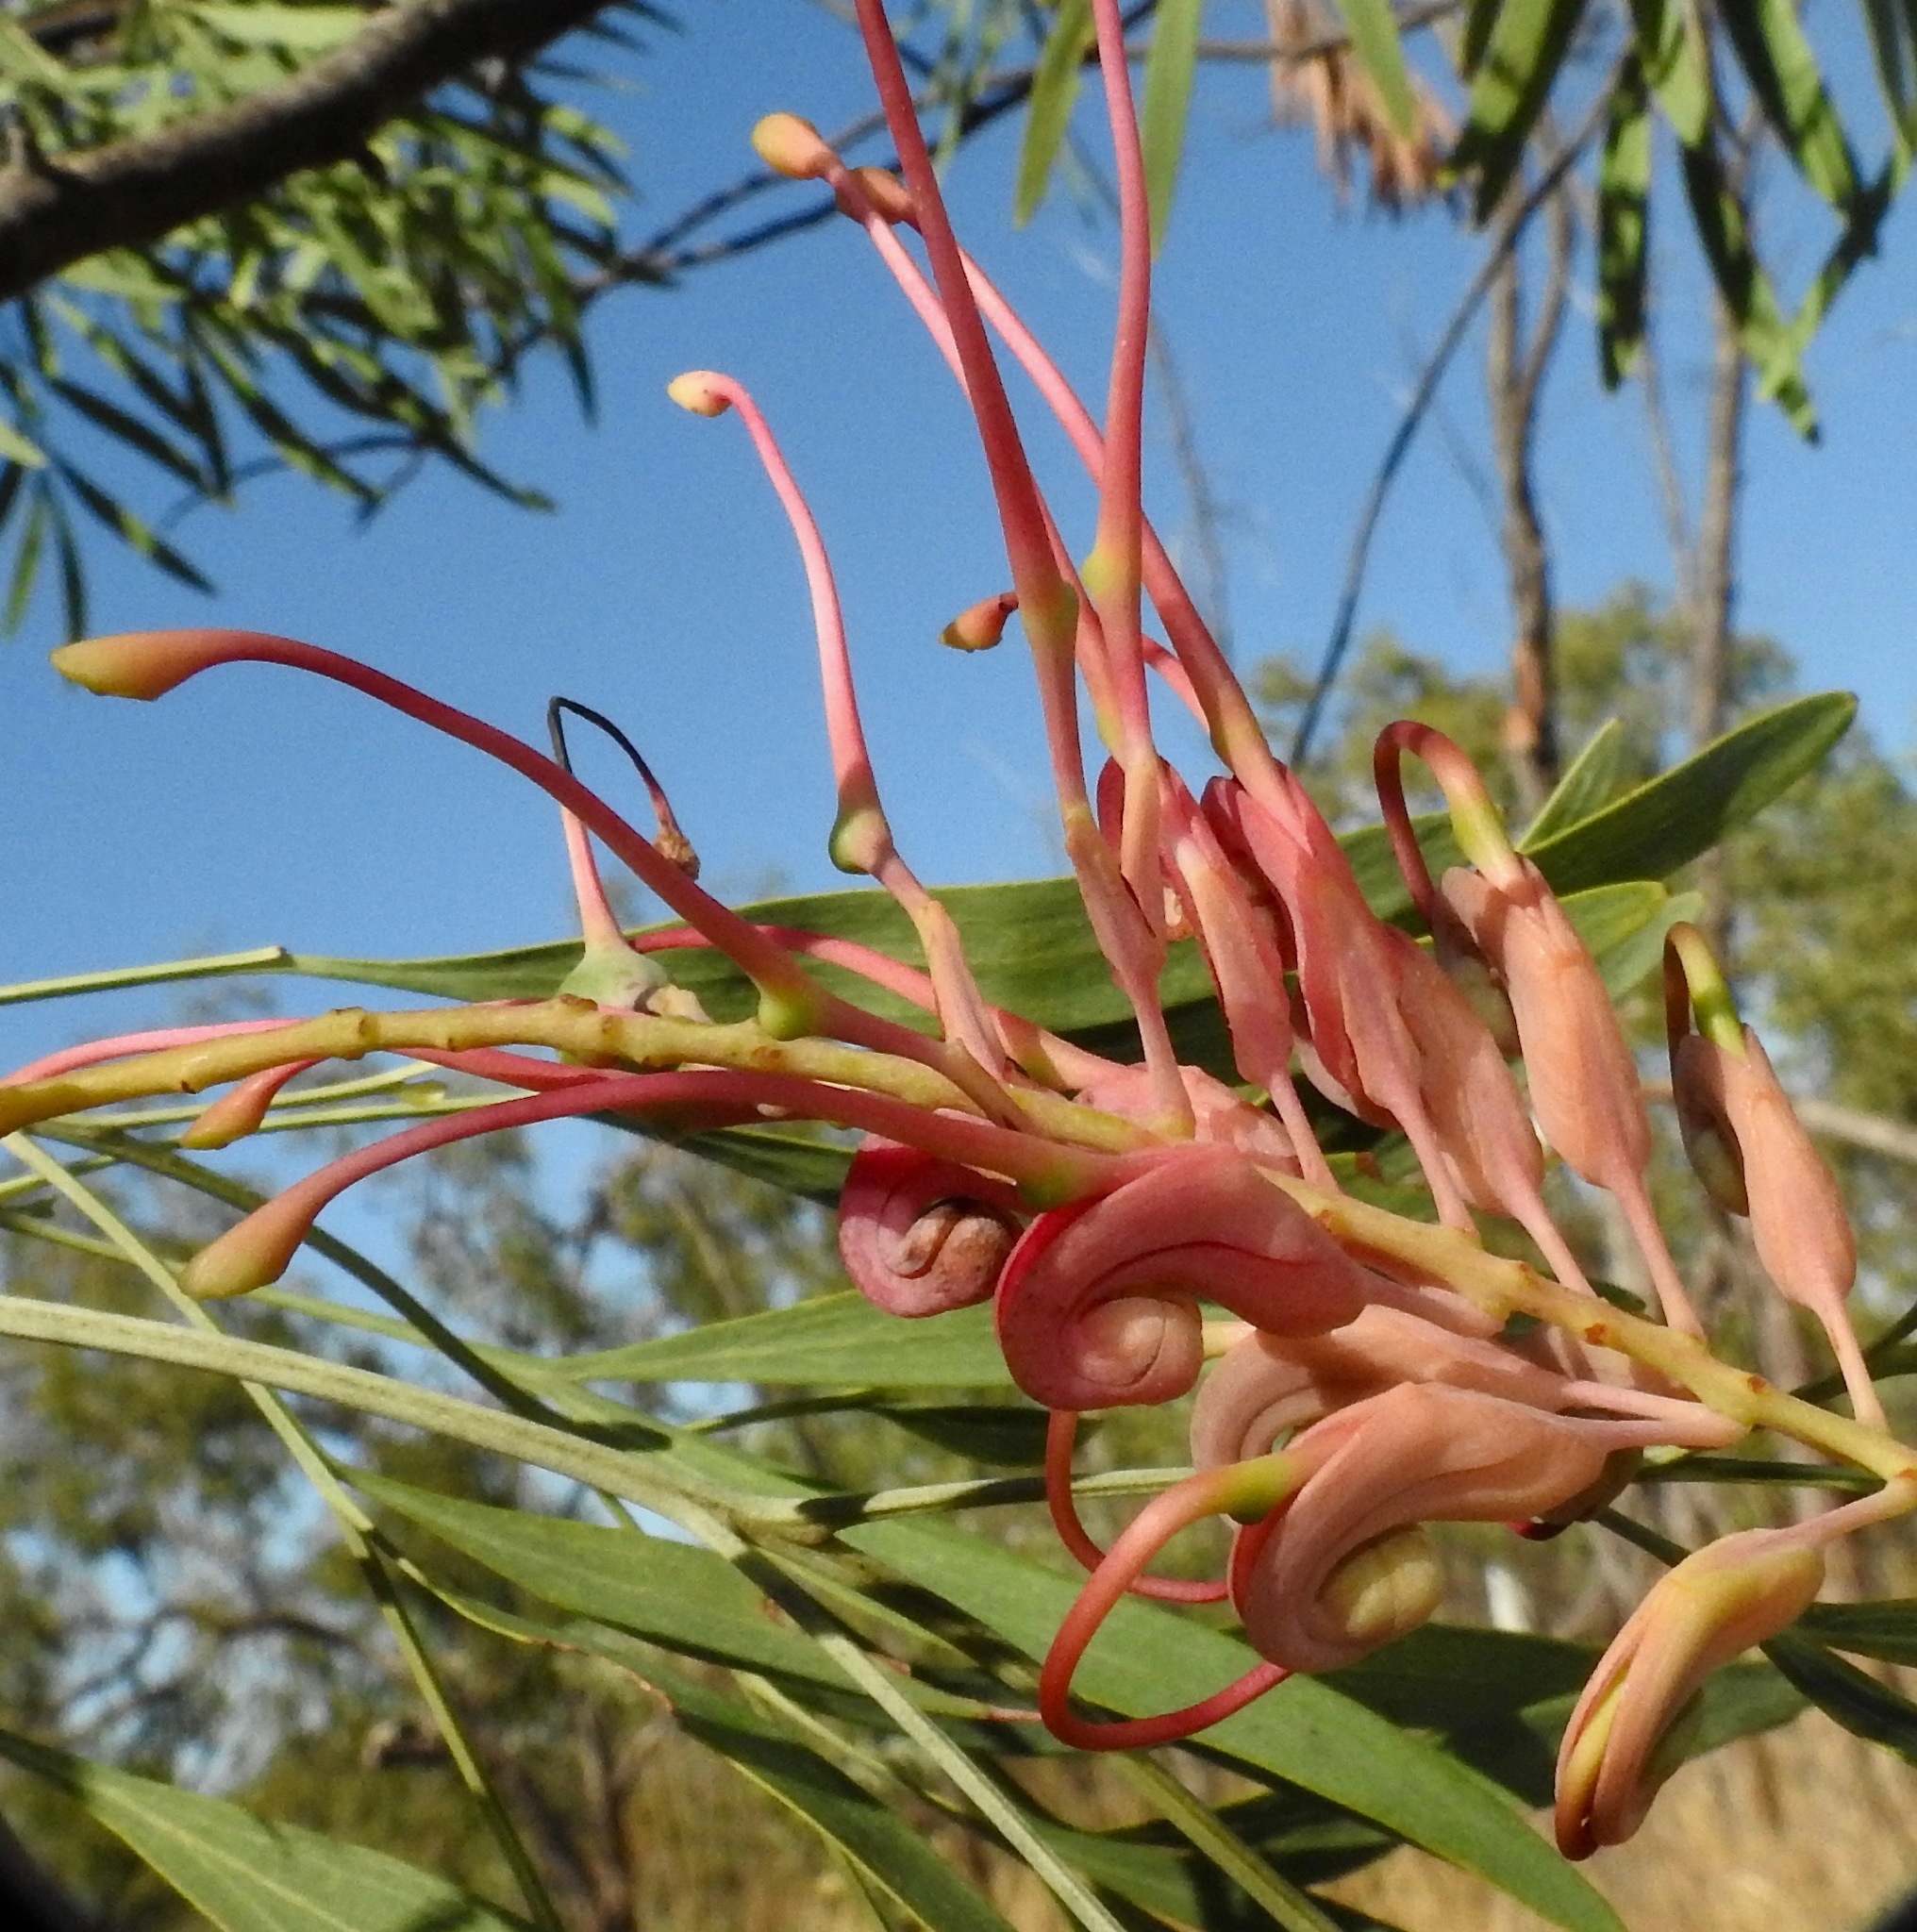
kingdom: Plantae
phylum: Tracheophyta
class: Magnoliopsida
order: Proteales
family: Proteaceae
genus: Grevillea
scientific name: Grevillea heliosperma
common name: Rock grevillea
